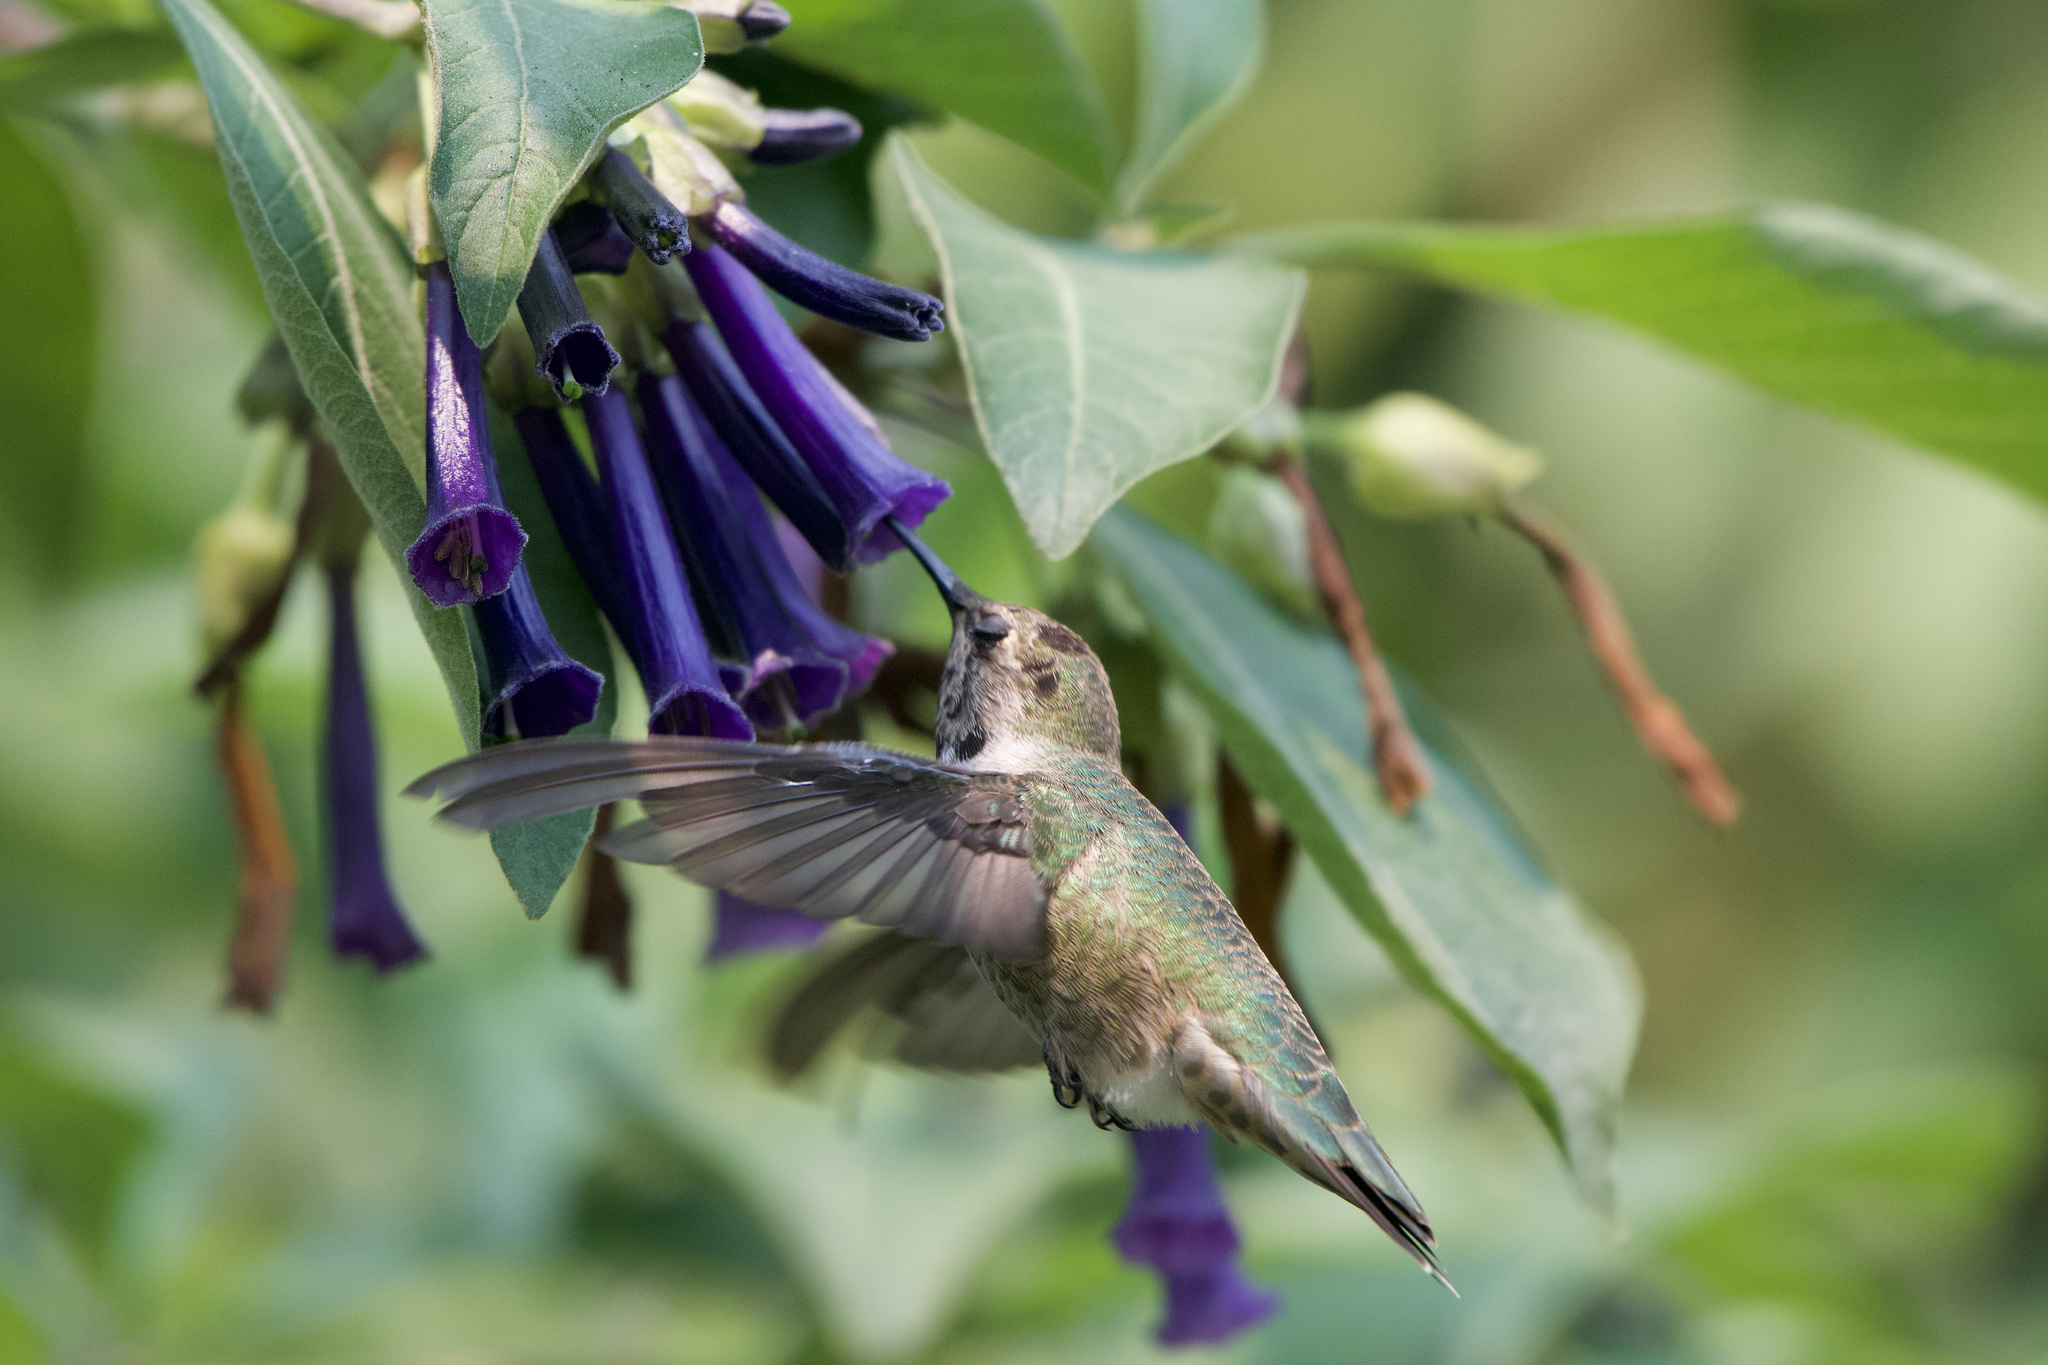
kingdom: Animalia
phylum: Chordata
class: Aves
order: Apodiformes
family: Trochilidae
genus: Calypte
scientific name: Calypte anna
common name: Anna's hummingbird
